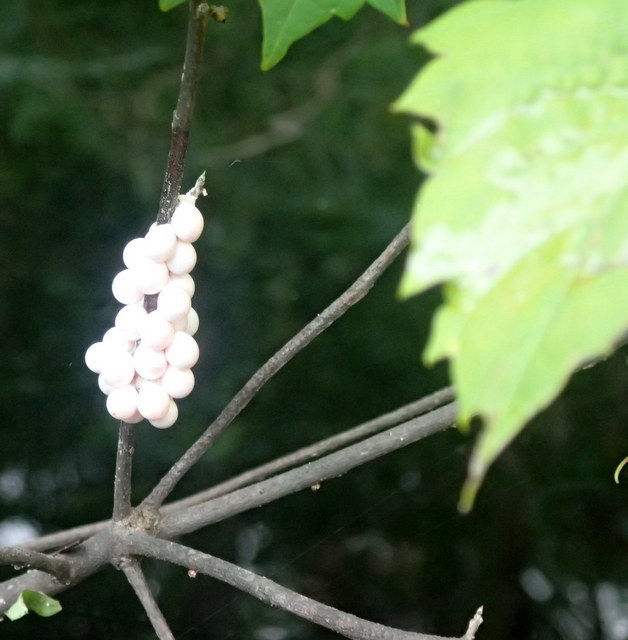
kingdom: Animalia
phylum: Mollusca
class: Gastropoda
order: Architaenioglossa
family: Ampullariidae
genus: Pomacea
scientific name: Pomacea paludosa
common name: Florida applesnail
